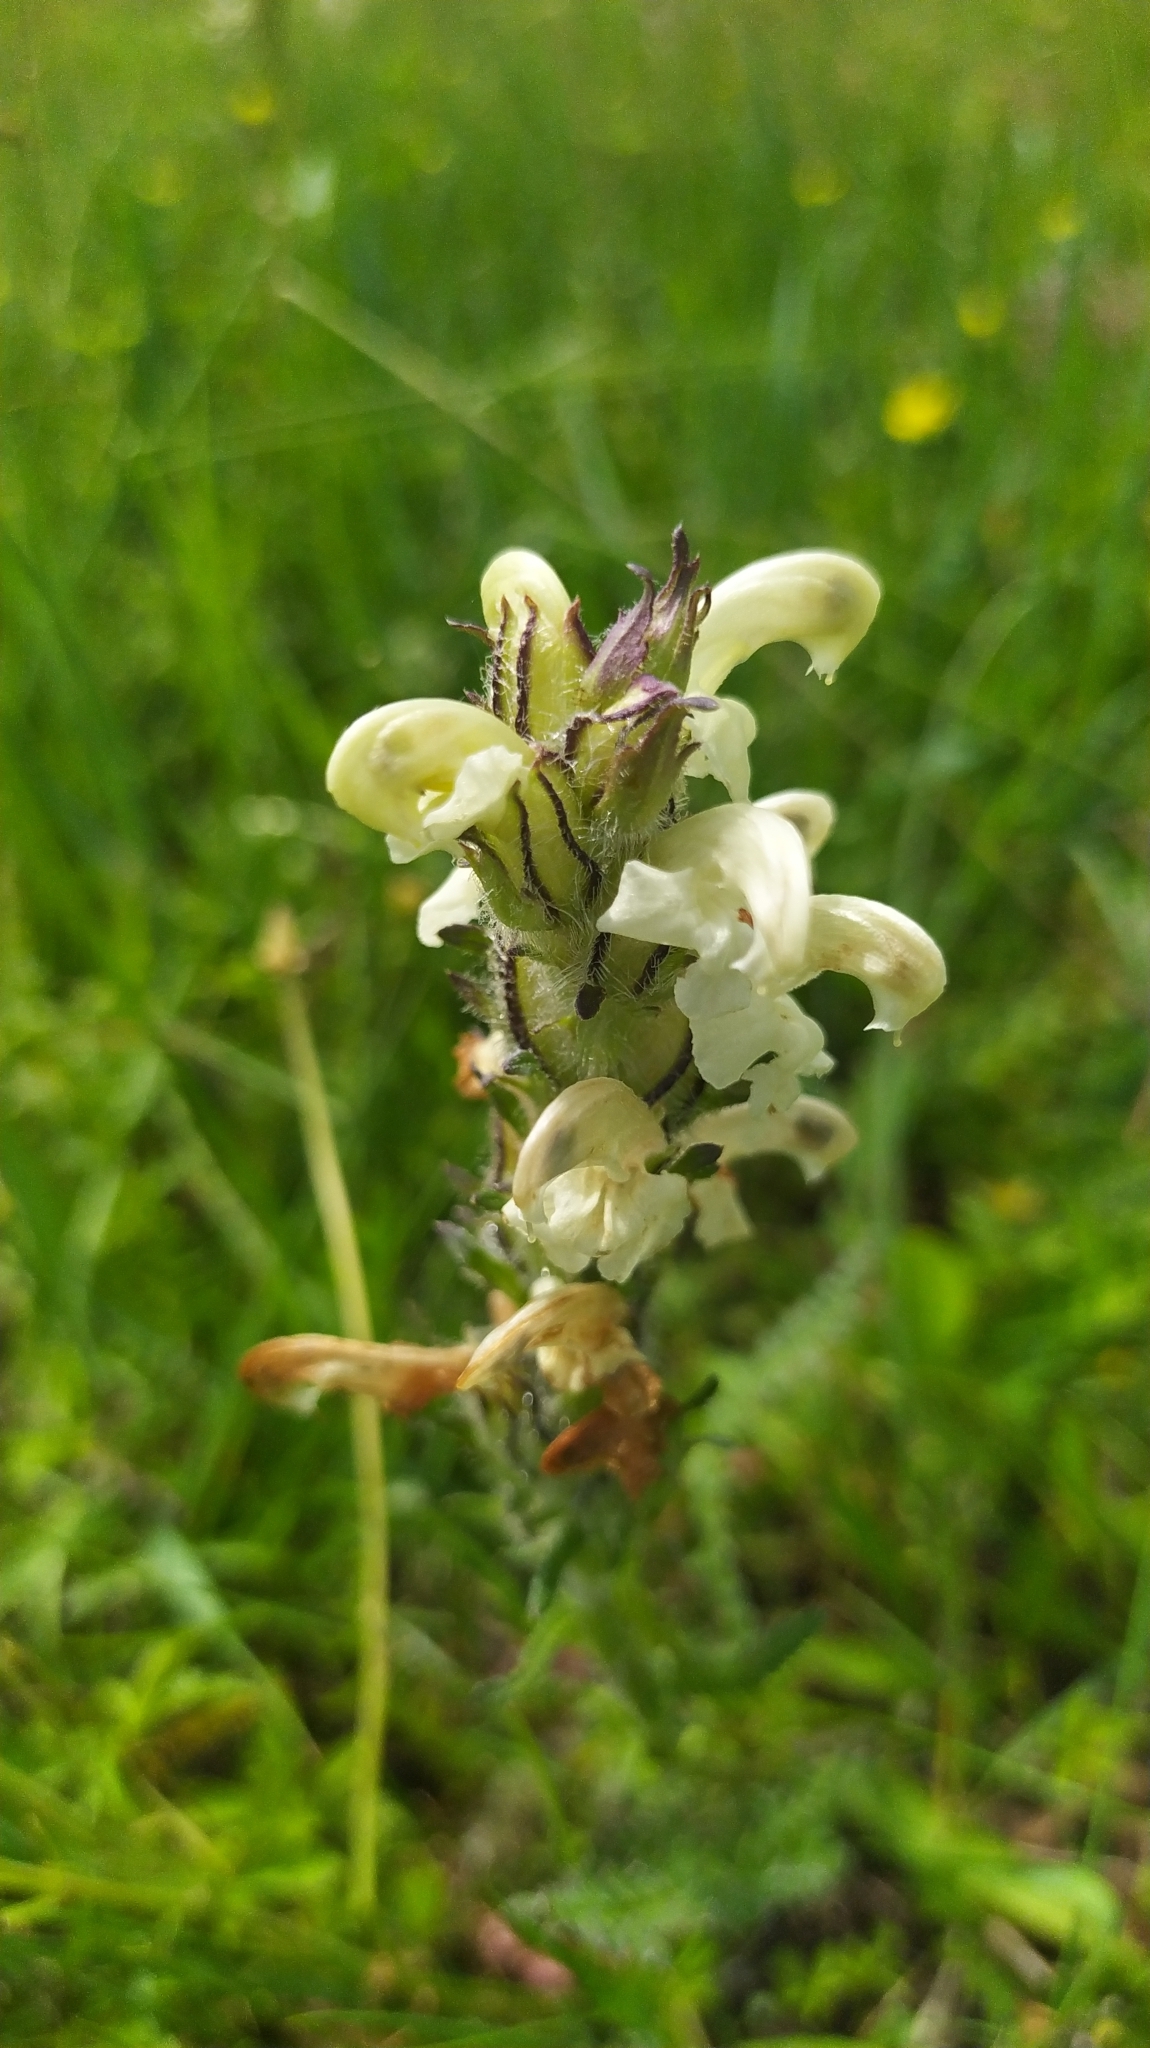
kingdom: Plantae
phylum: Tracheophyta
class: Magnoliopsida
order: Lamiales
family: Orobanchaceae
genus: Pedicularis
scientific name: Pedicularis venusta
